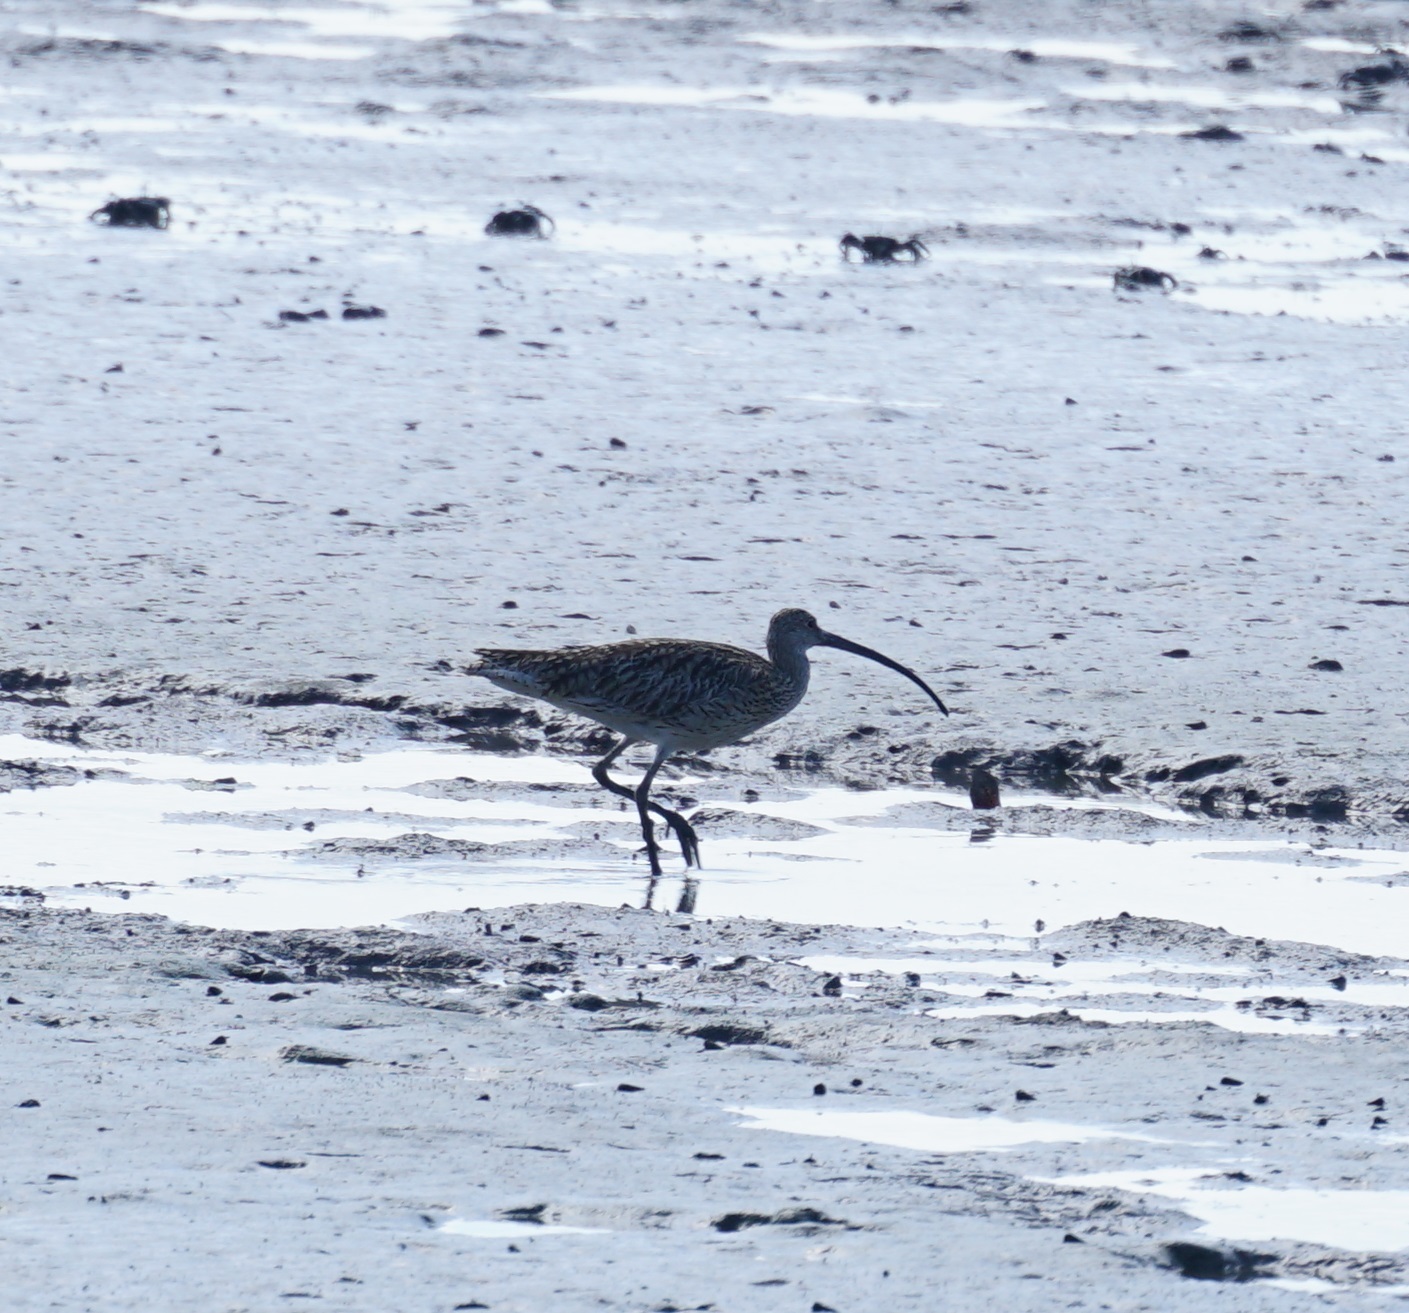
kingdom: Animalia
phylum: Chordata
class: Aves
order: Charadriiformes
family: Scolopacidae
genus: Numenius
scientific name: Numenius madagascariensis
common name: Far eastern curlew
